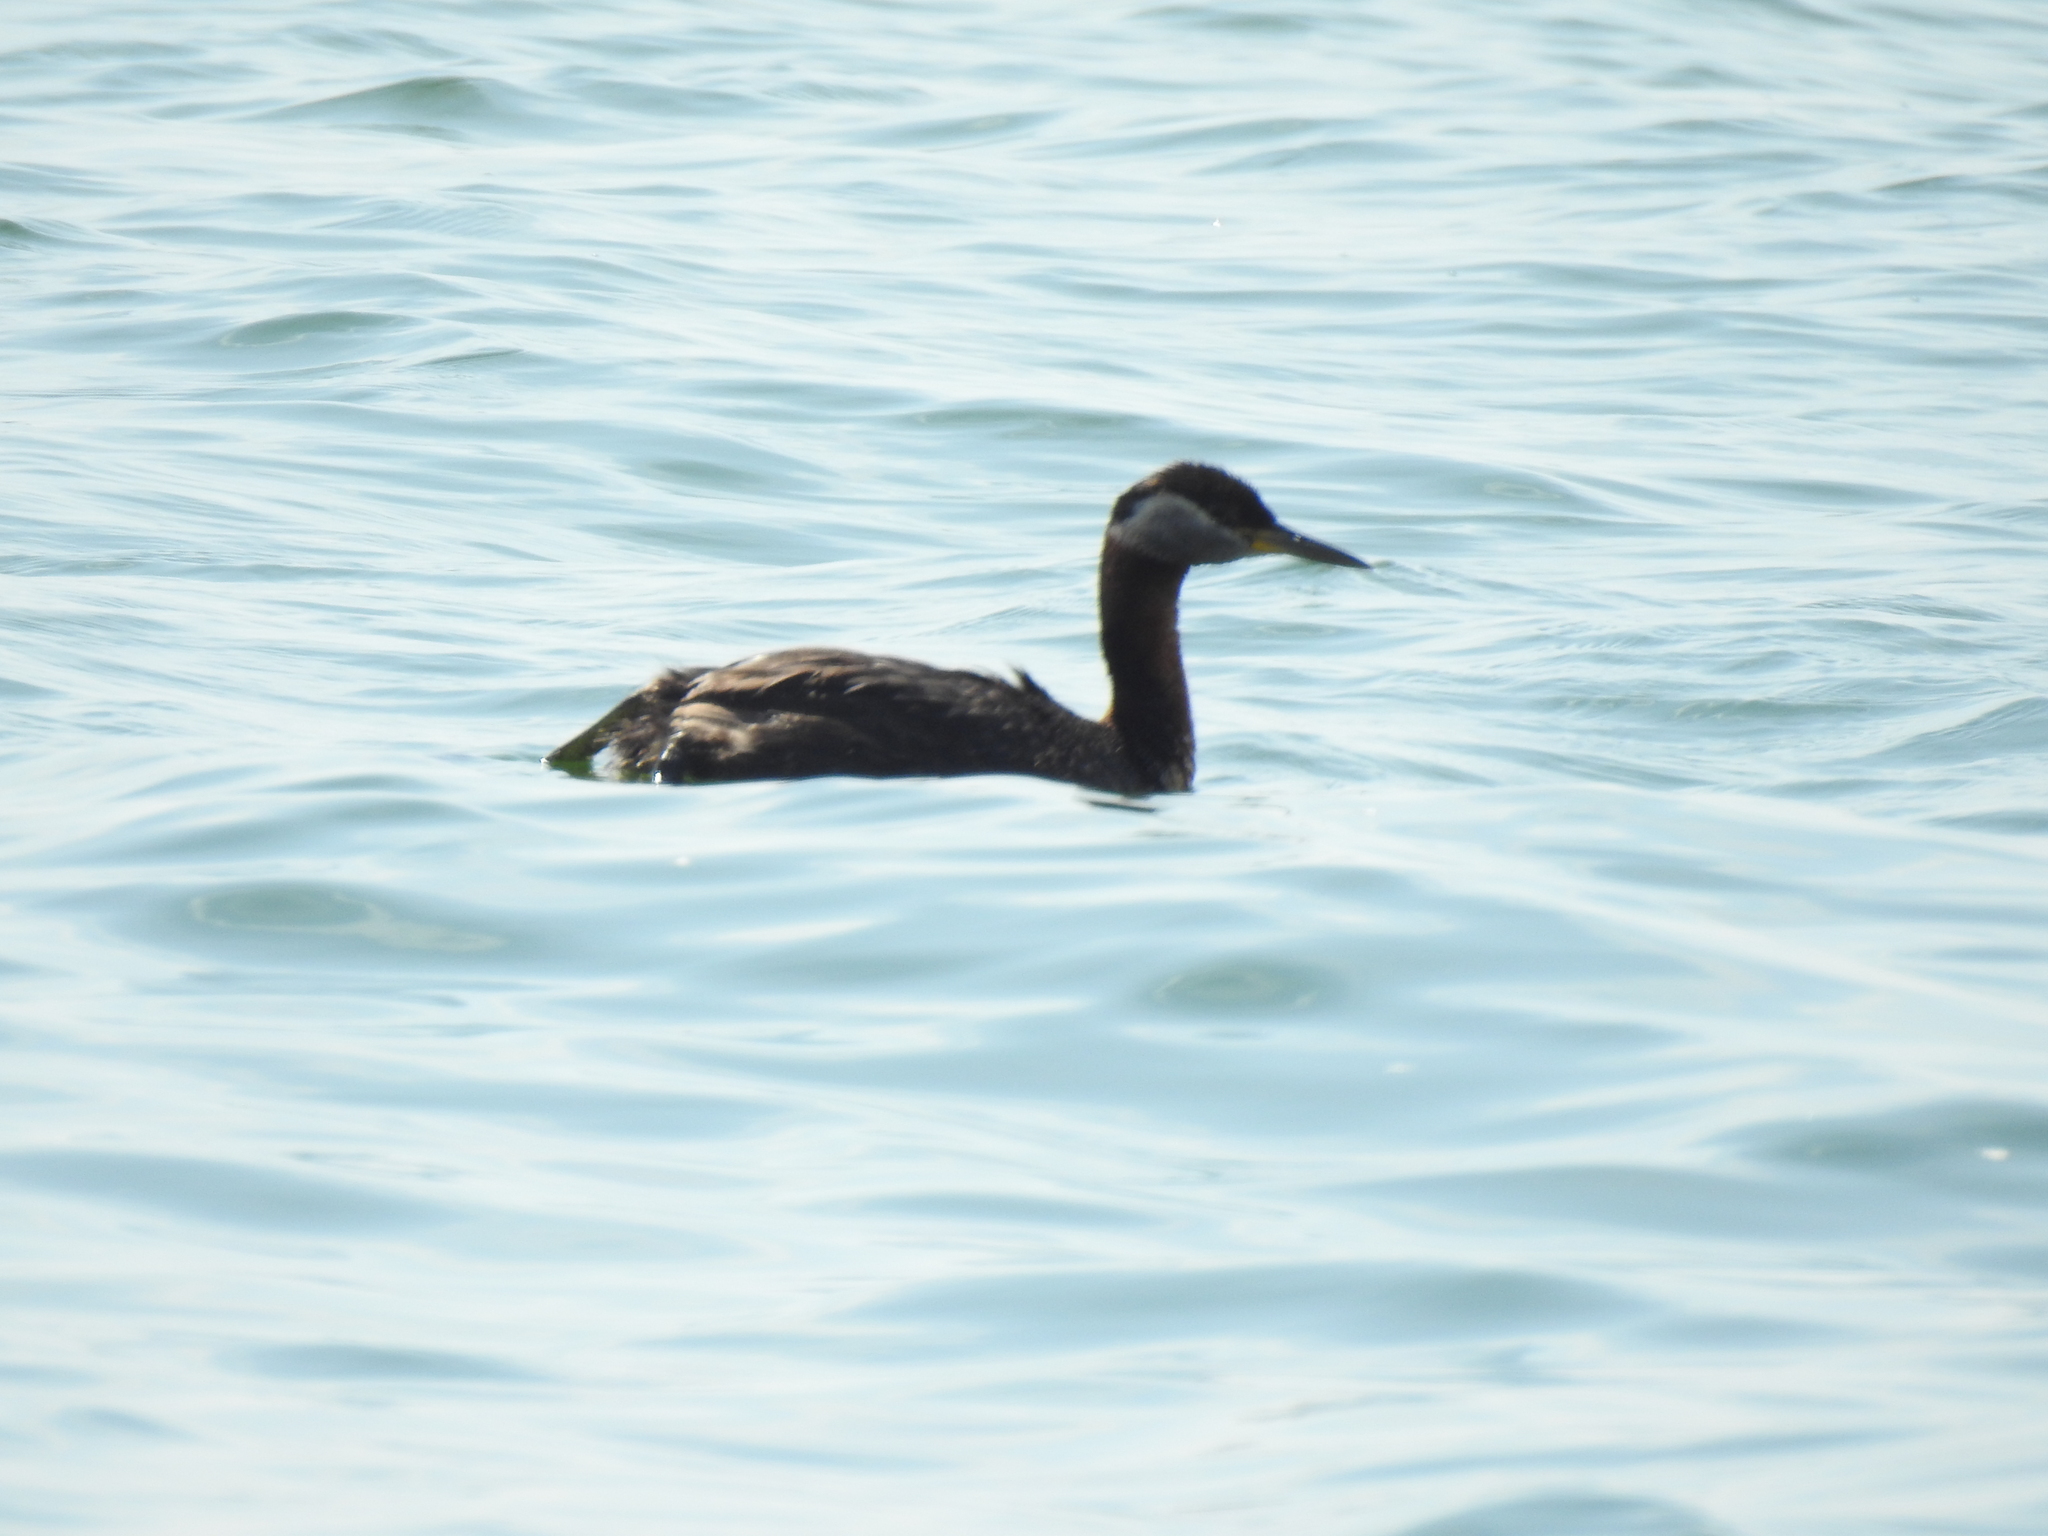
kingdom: Animalia
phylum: Chordata
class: Aves
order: Podicipediformes
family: Podicipedidae
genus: Podiceps
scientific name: Podiceps grisegena
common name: Red-necked grebe
